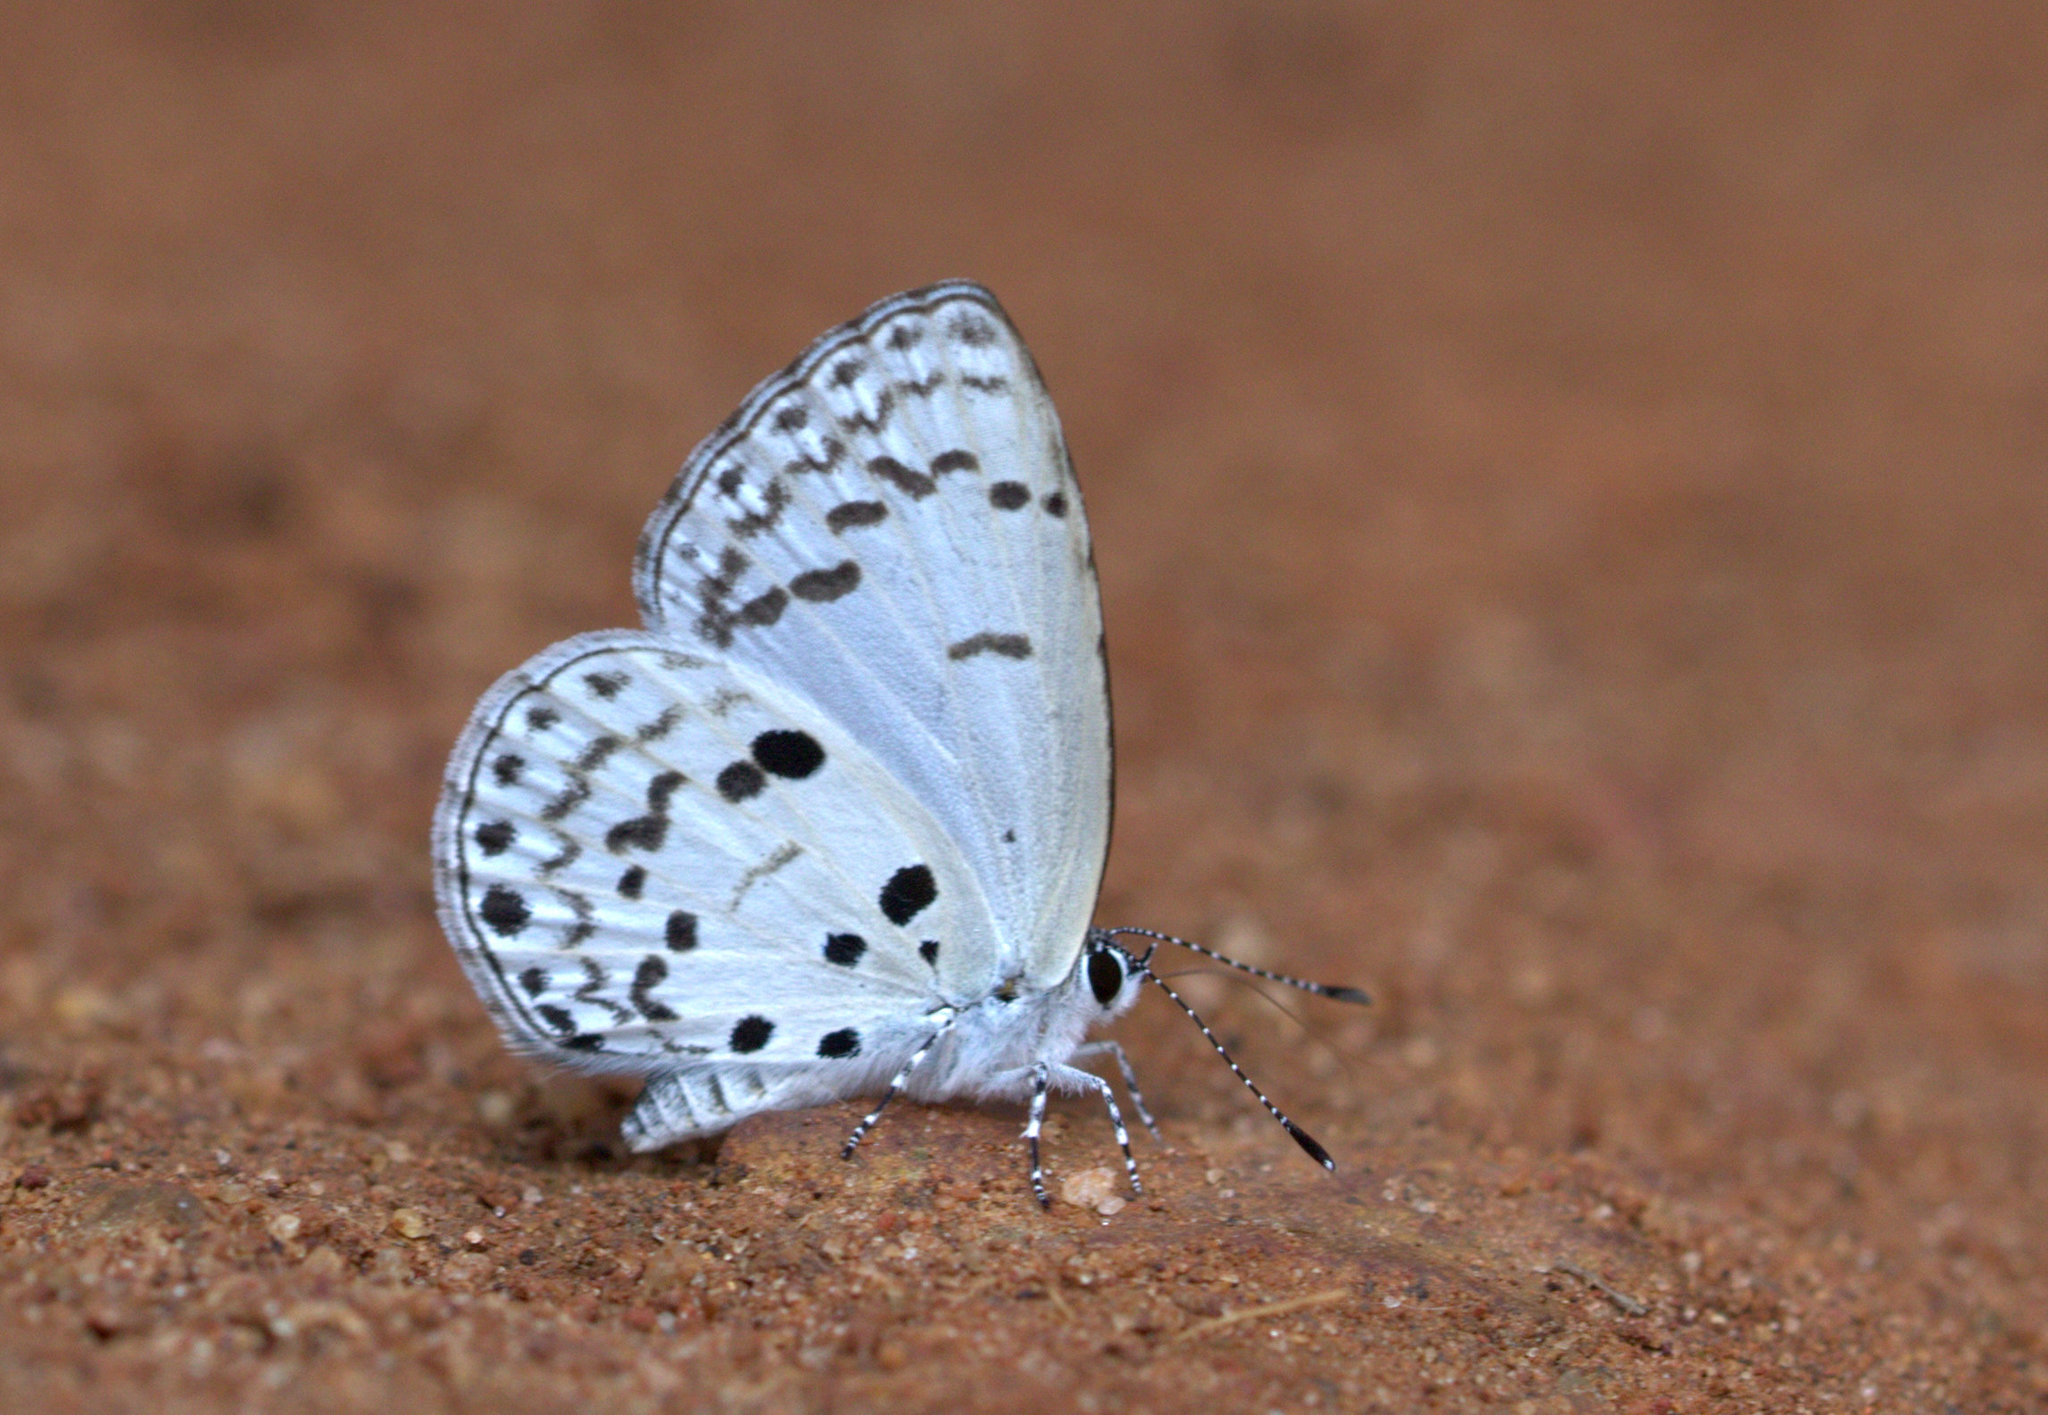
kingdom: Animalia
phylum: Arthropoda
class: Insecta
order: Lepidoptera
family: Lycaenidae
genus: Acytolepis
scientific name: Acytolepis puspa
